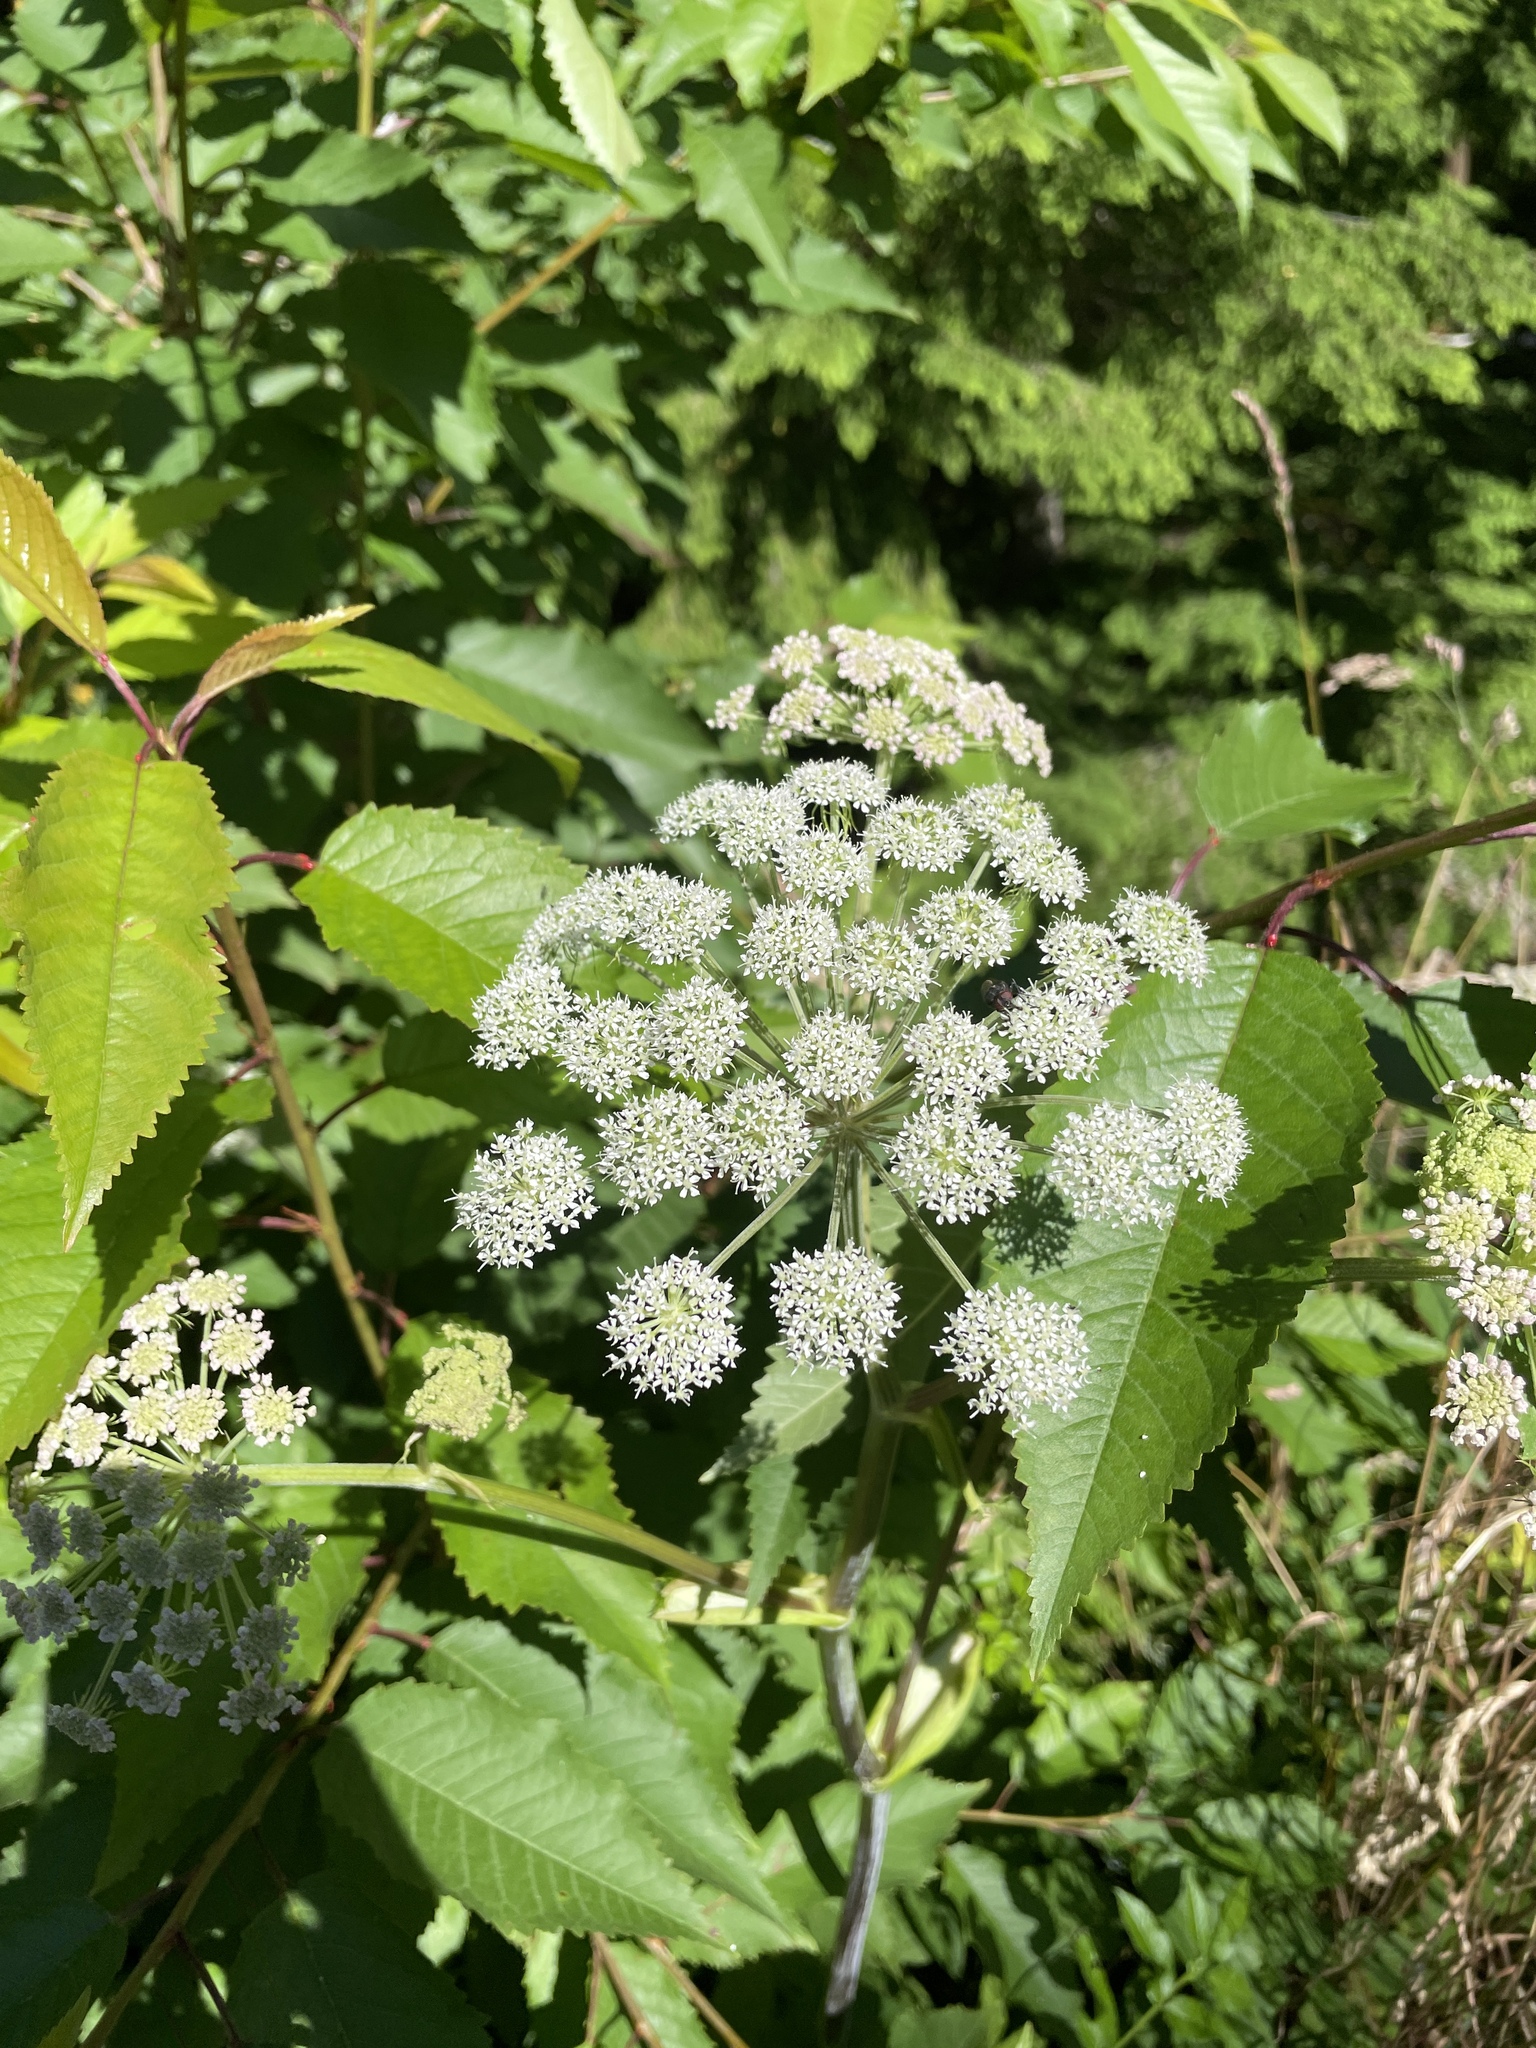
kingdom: Plantae
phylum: Tracheophyta
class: Magnoliopsida
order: Apiales
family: Apiaceae
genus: Angelica
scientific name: Angelica sylvestris
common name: Wild angelica
